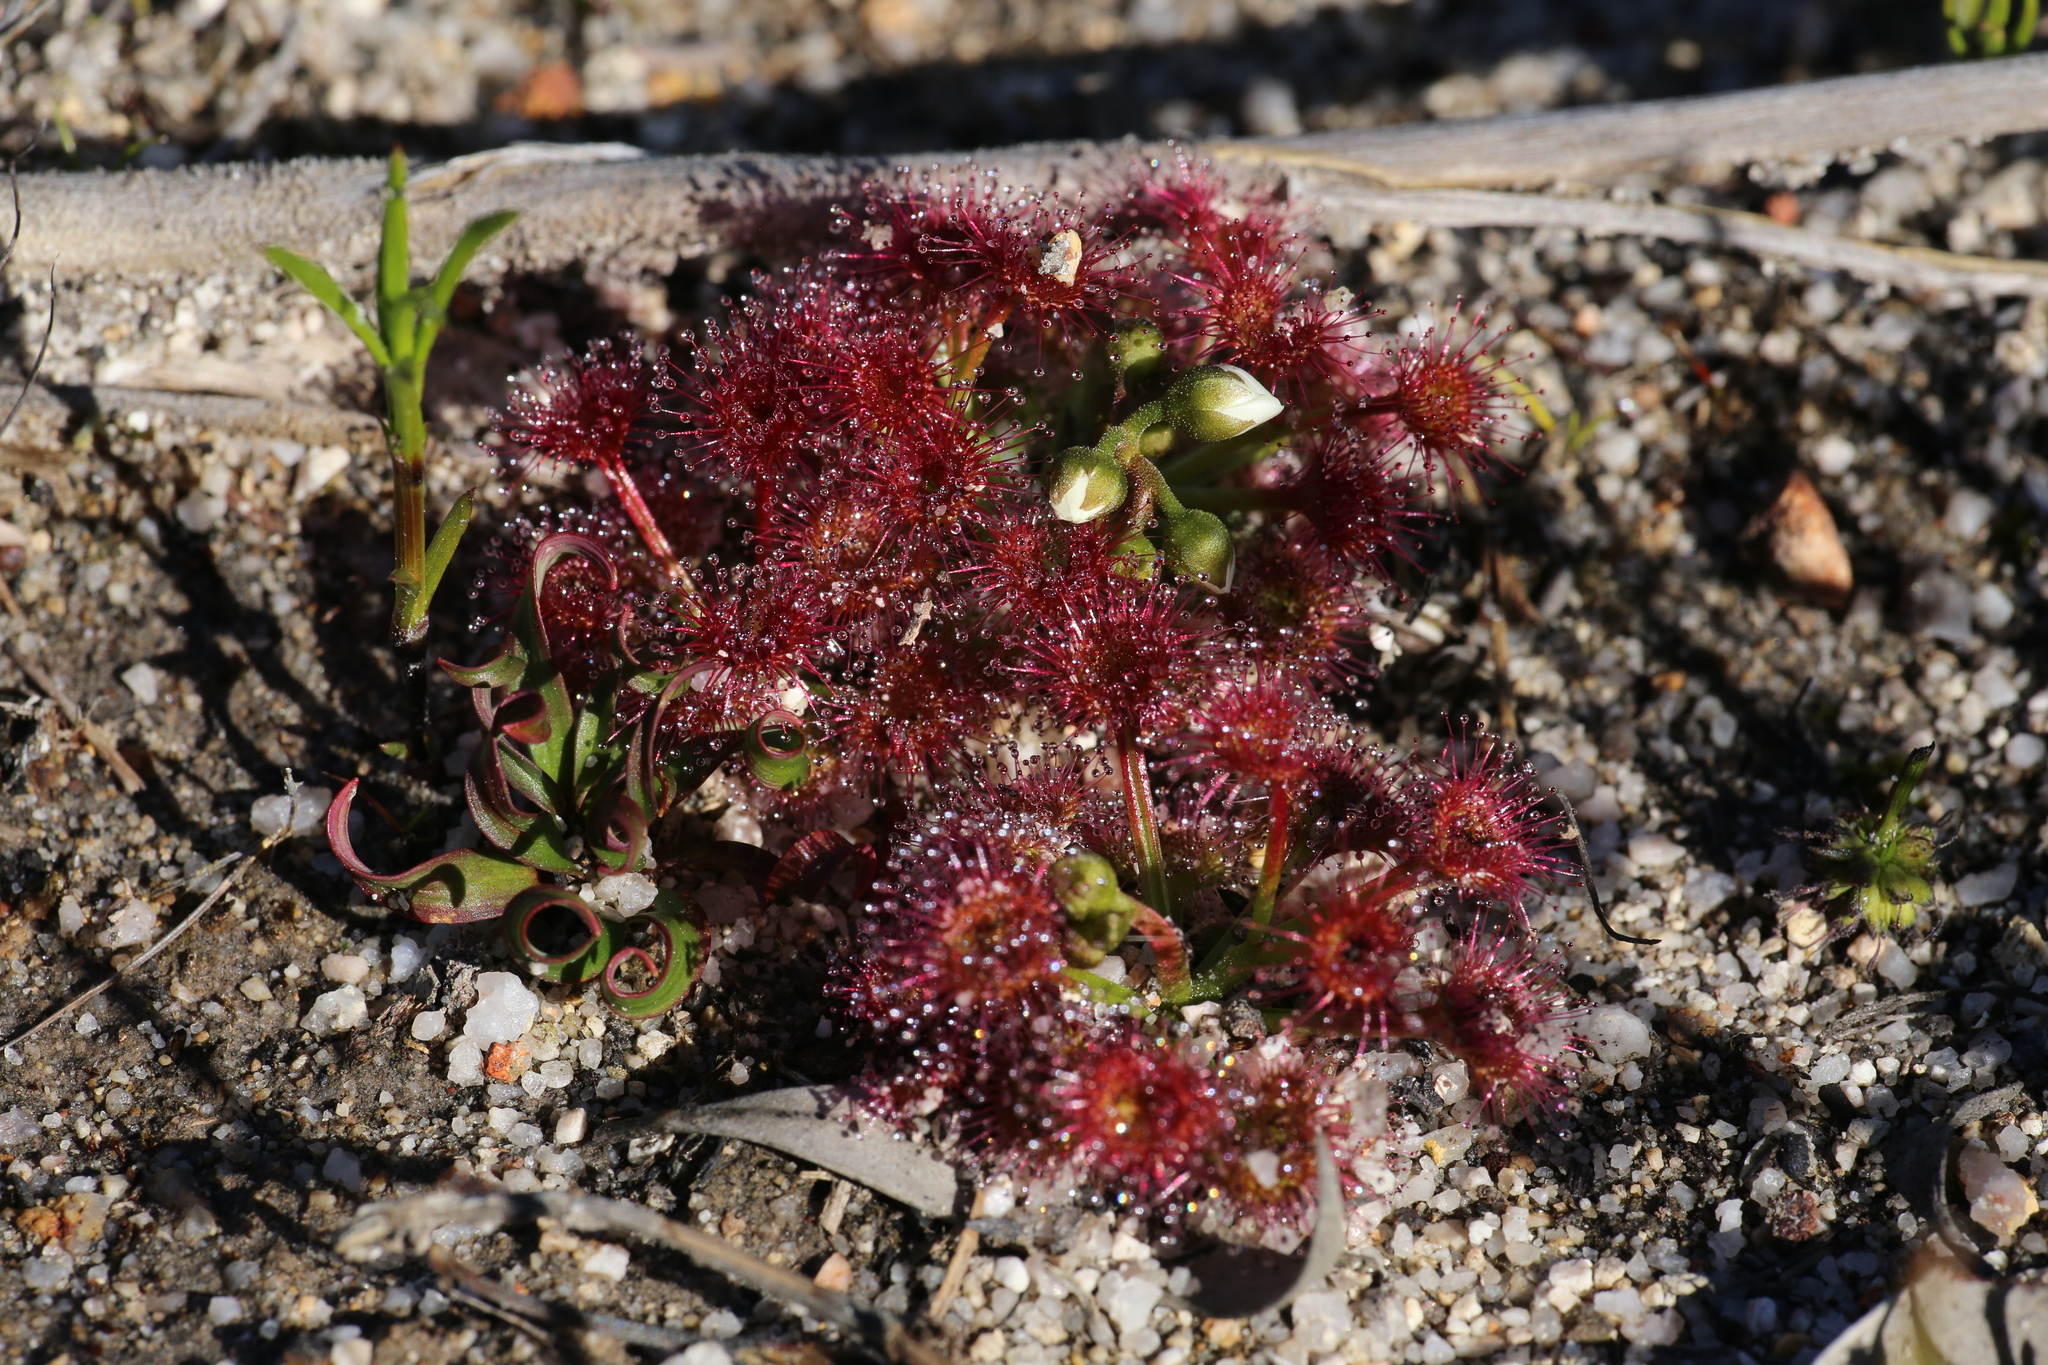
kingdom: Plantae
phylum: Tracheophyta
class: Magnoliopsida
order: Caryophyllales
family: Droseraceae
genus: Drosera
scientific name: Drosera stolonifera
